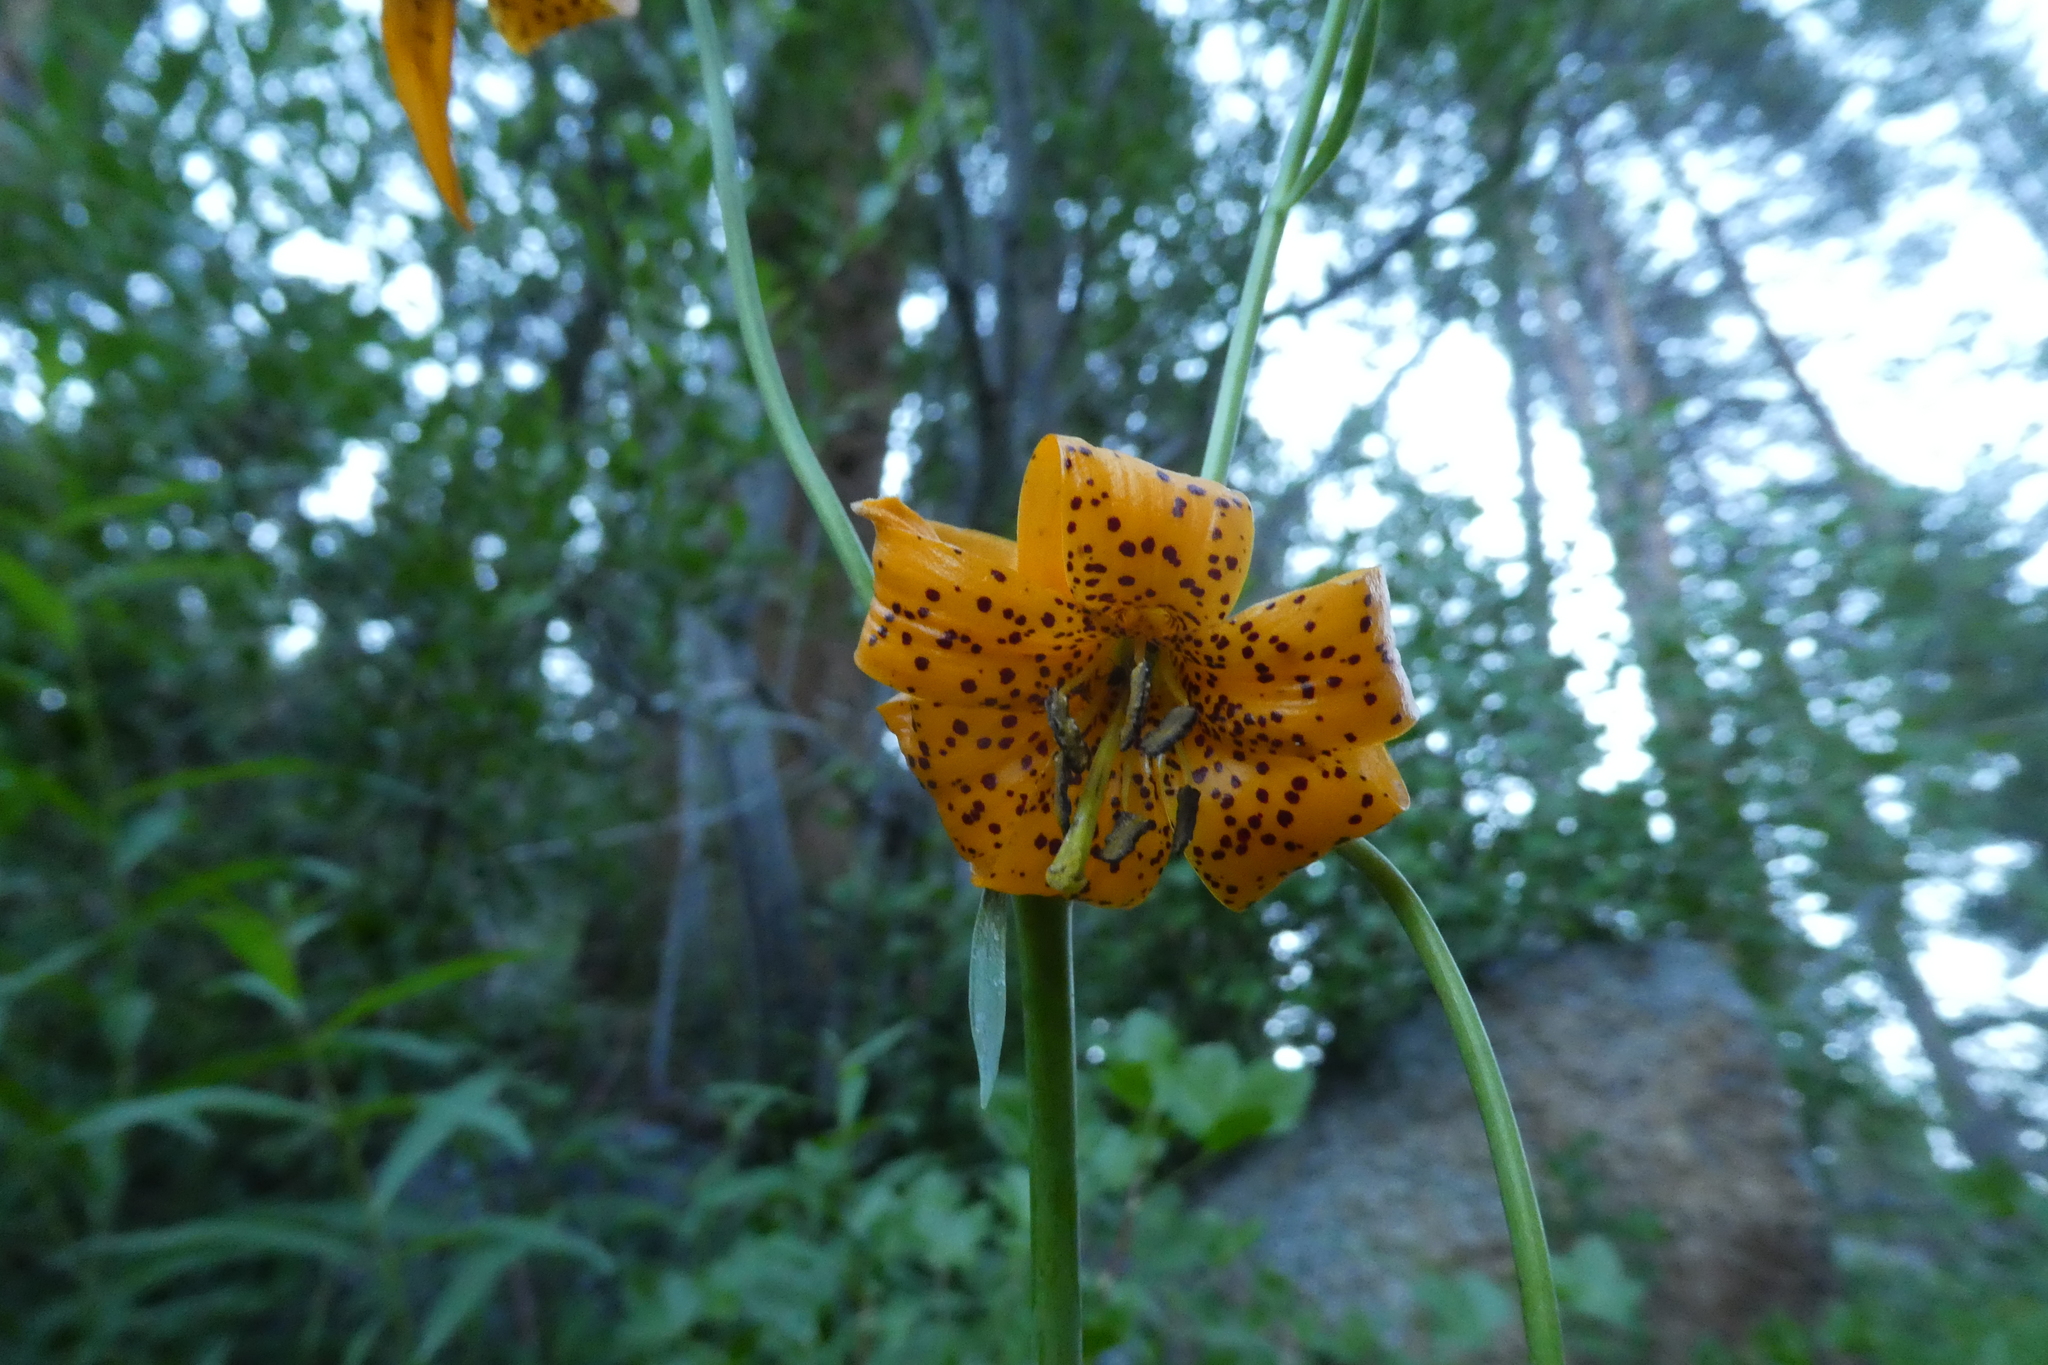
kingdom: Plantae
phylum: Tracheophyta
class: Liliopsida
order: Liliales
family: Liliaceae
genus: Lilium
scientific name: Lilium kelleyanum
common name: Kelley's lily
